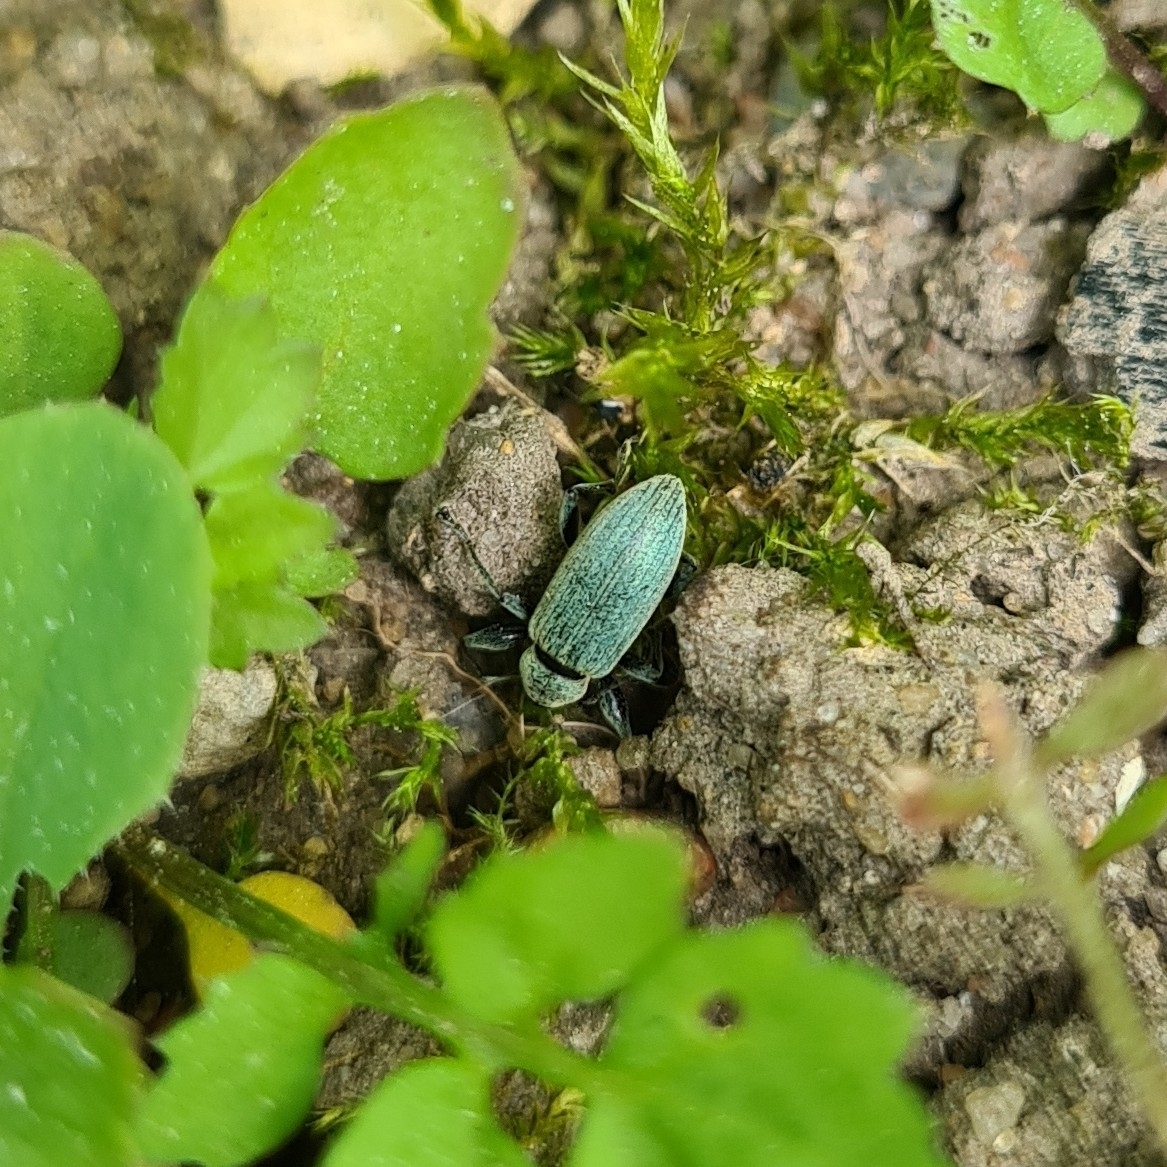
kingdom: Animalia
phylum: Arthropoda
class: Insecta
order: Coleoptera
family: Curculionidae
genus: Phyllobius
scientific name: Phyllobius pomaceus
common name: Green nettle weevil
